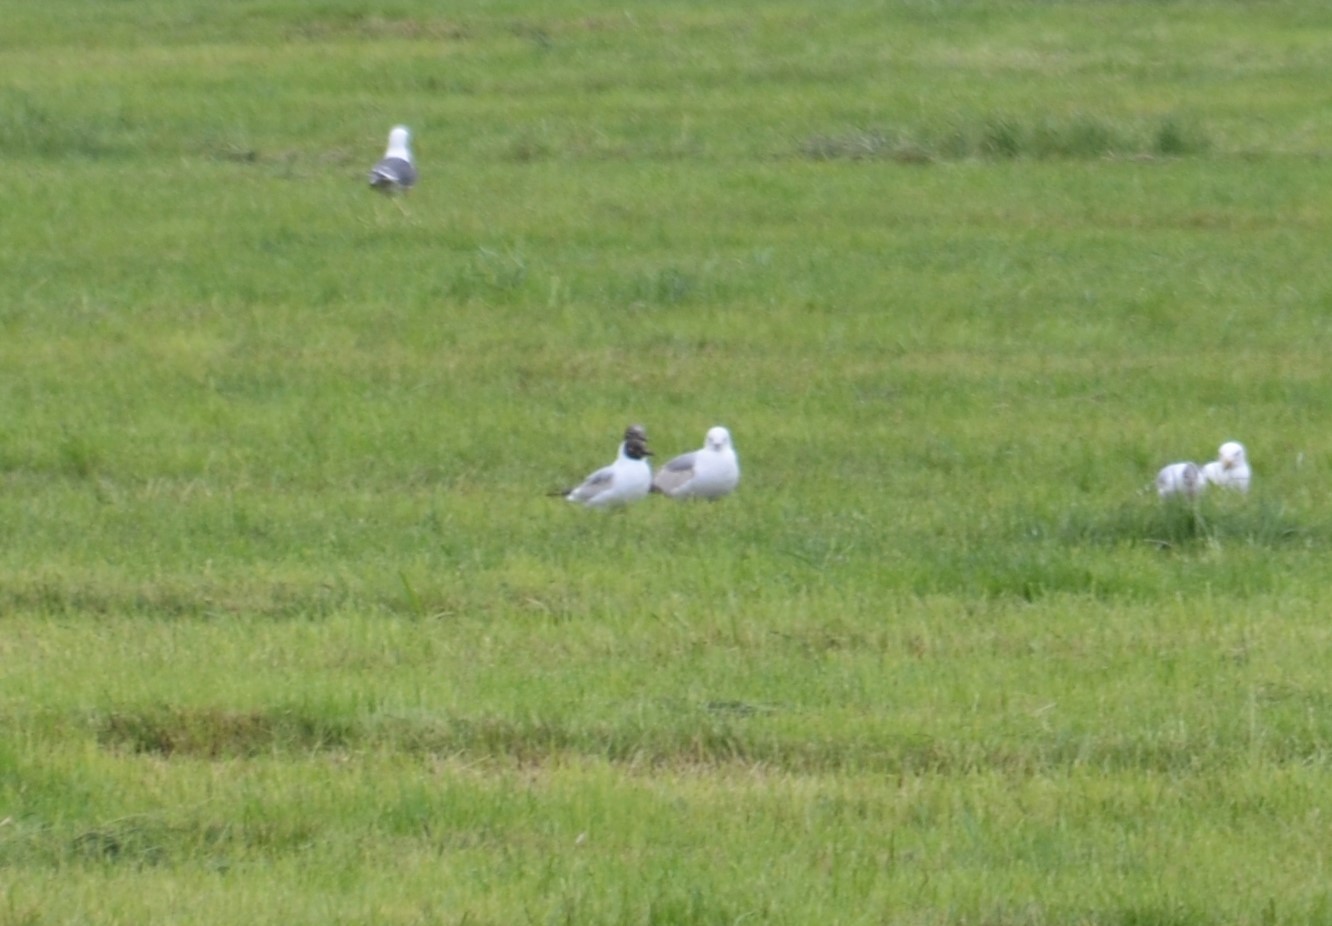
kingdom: Animalia
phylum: Chordata
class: Aves
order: Charadriiformes
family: Laridae
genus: Chroicocephalus
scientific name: Chroicocephalus ridibundus
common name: Black-headed gull
